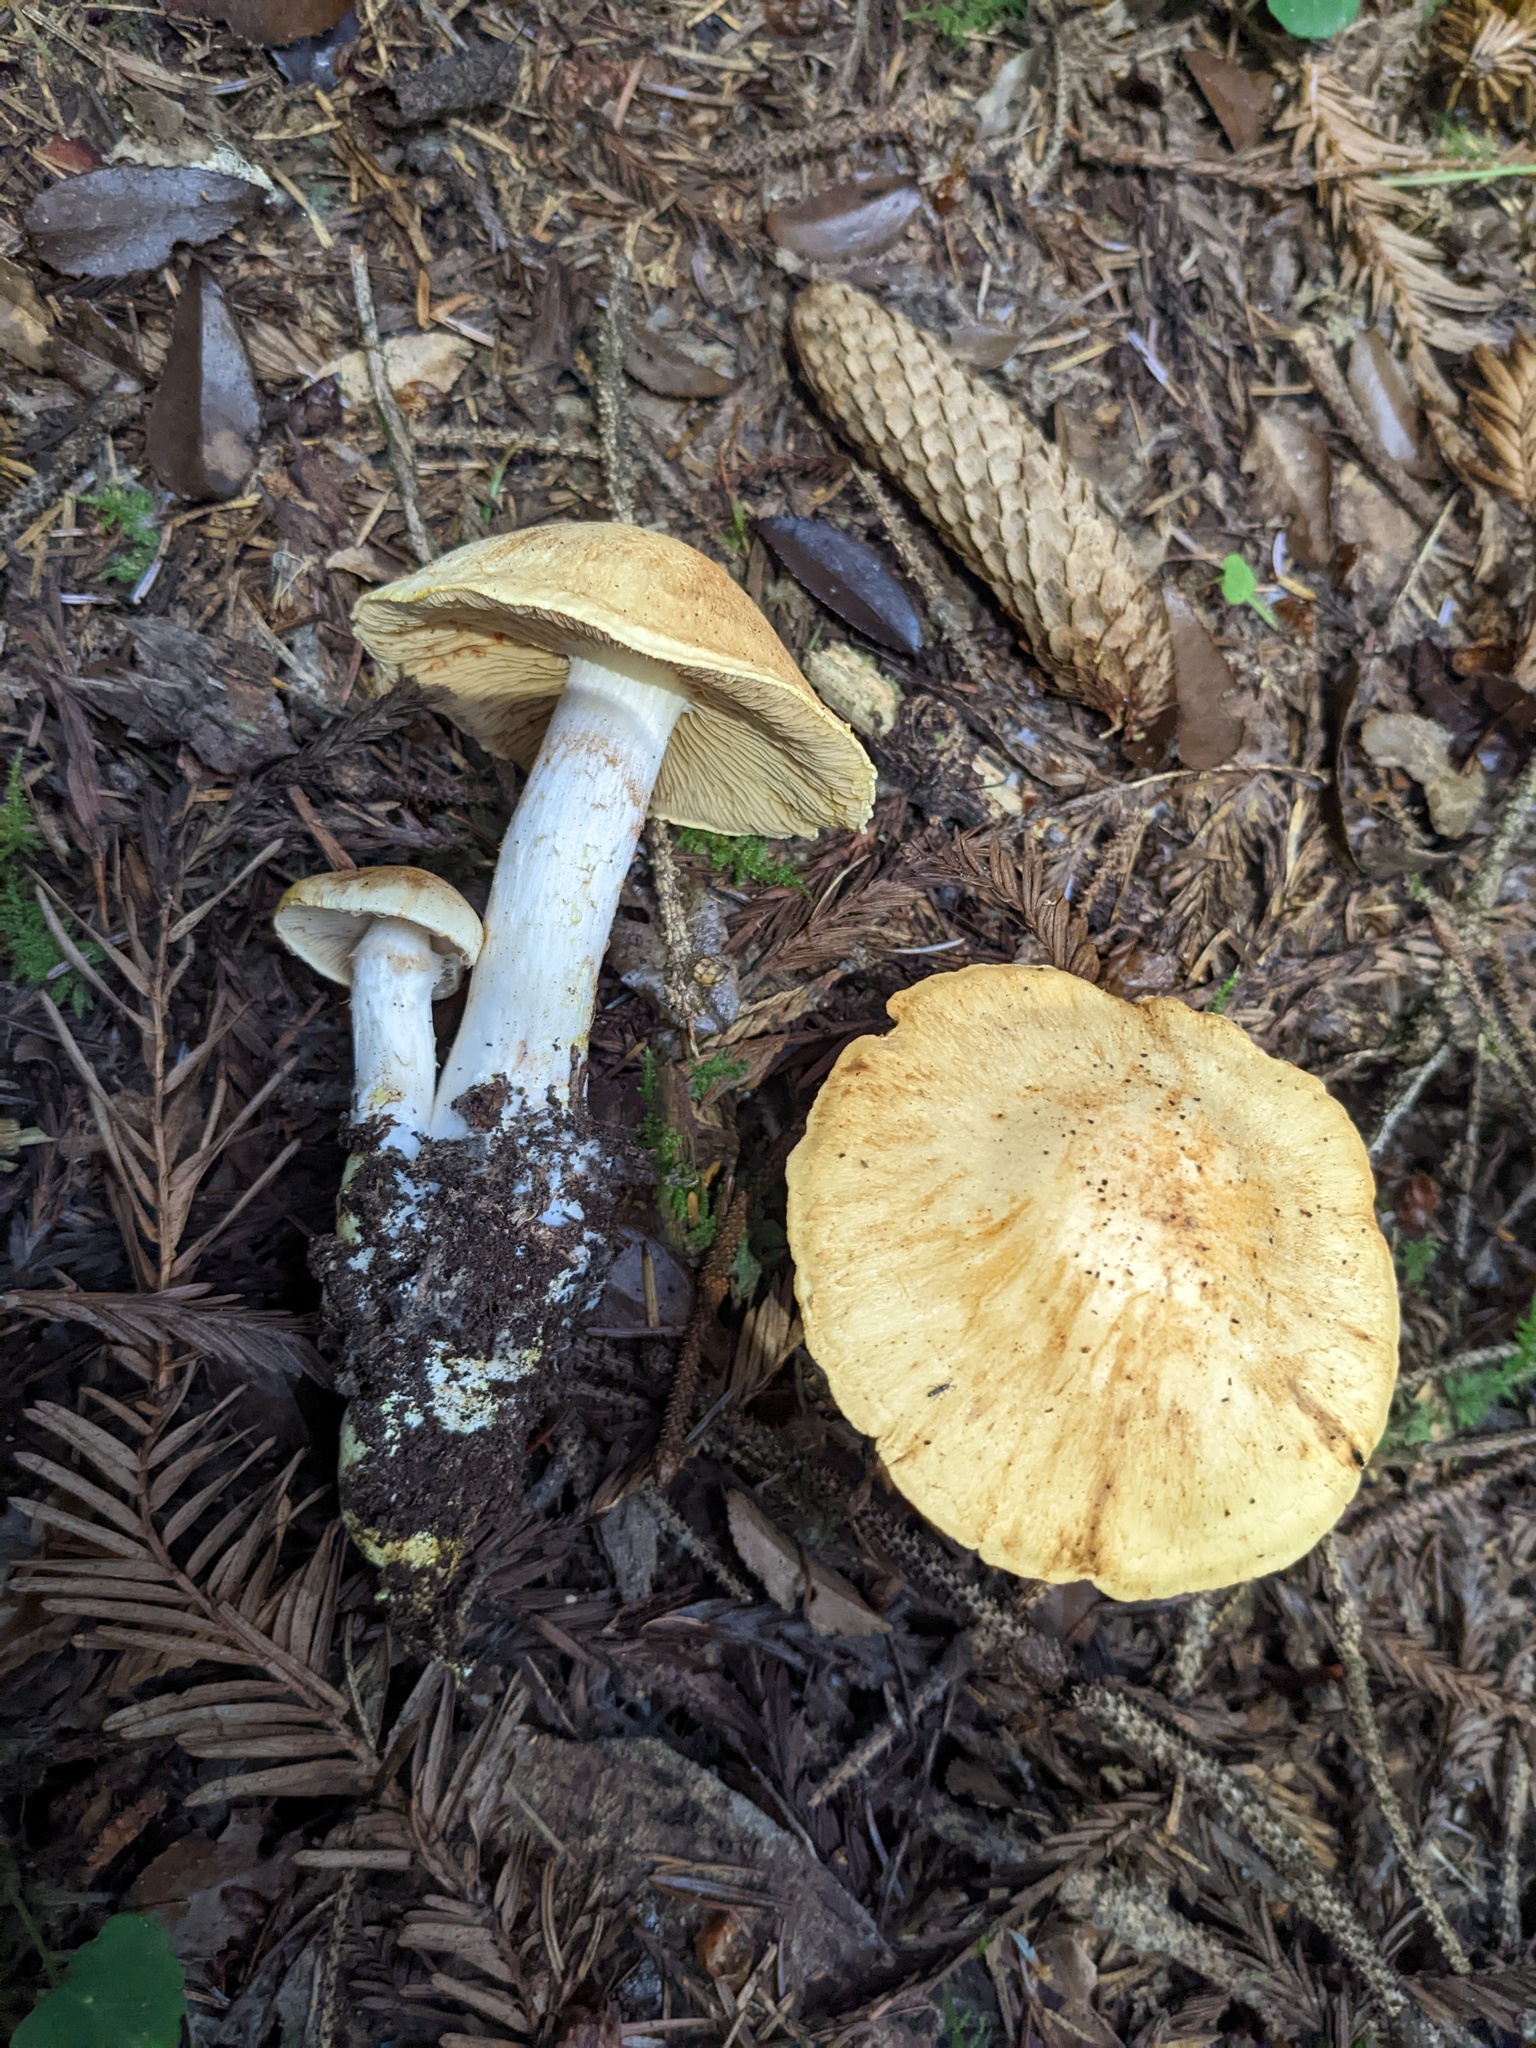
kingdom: Fungi
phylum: Basidiomycota
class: Agaricomycetes
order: Agaricales
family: Cortinariaceae
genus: Cystinarius
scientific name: Cystinarius rubiginosus
